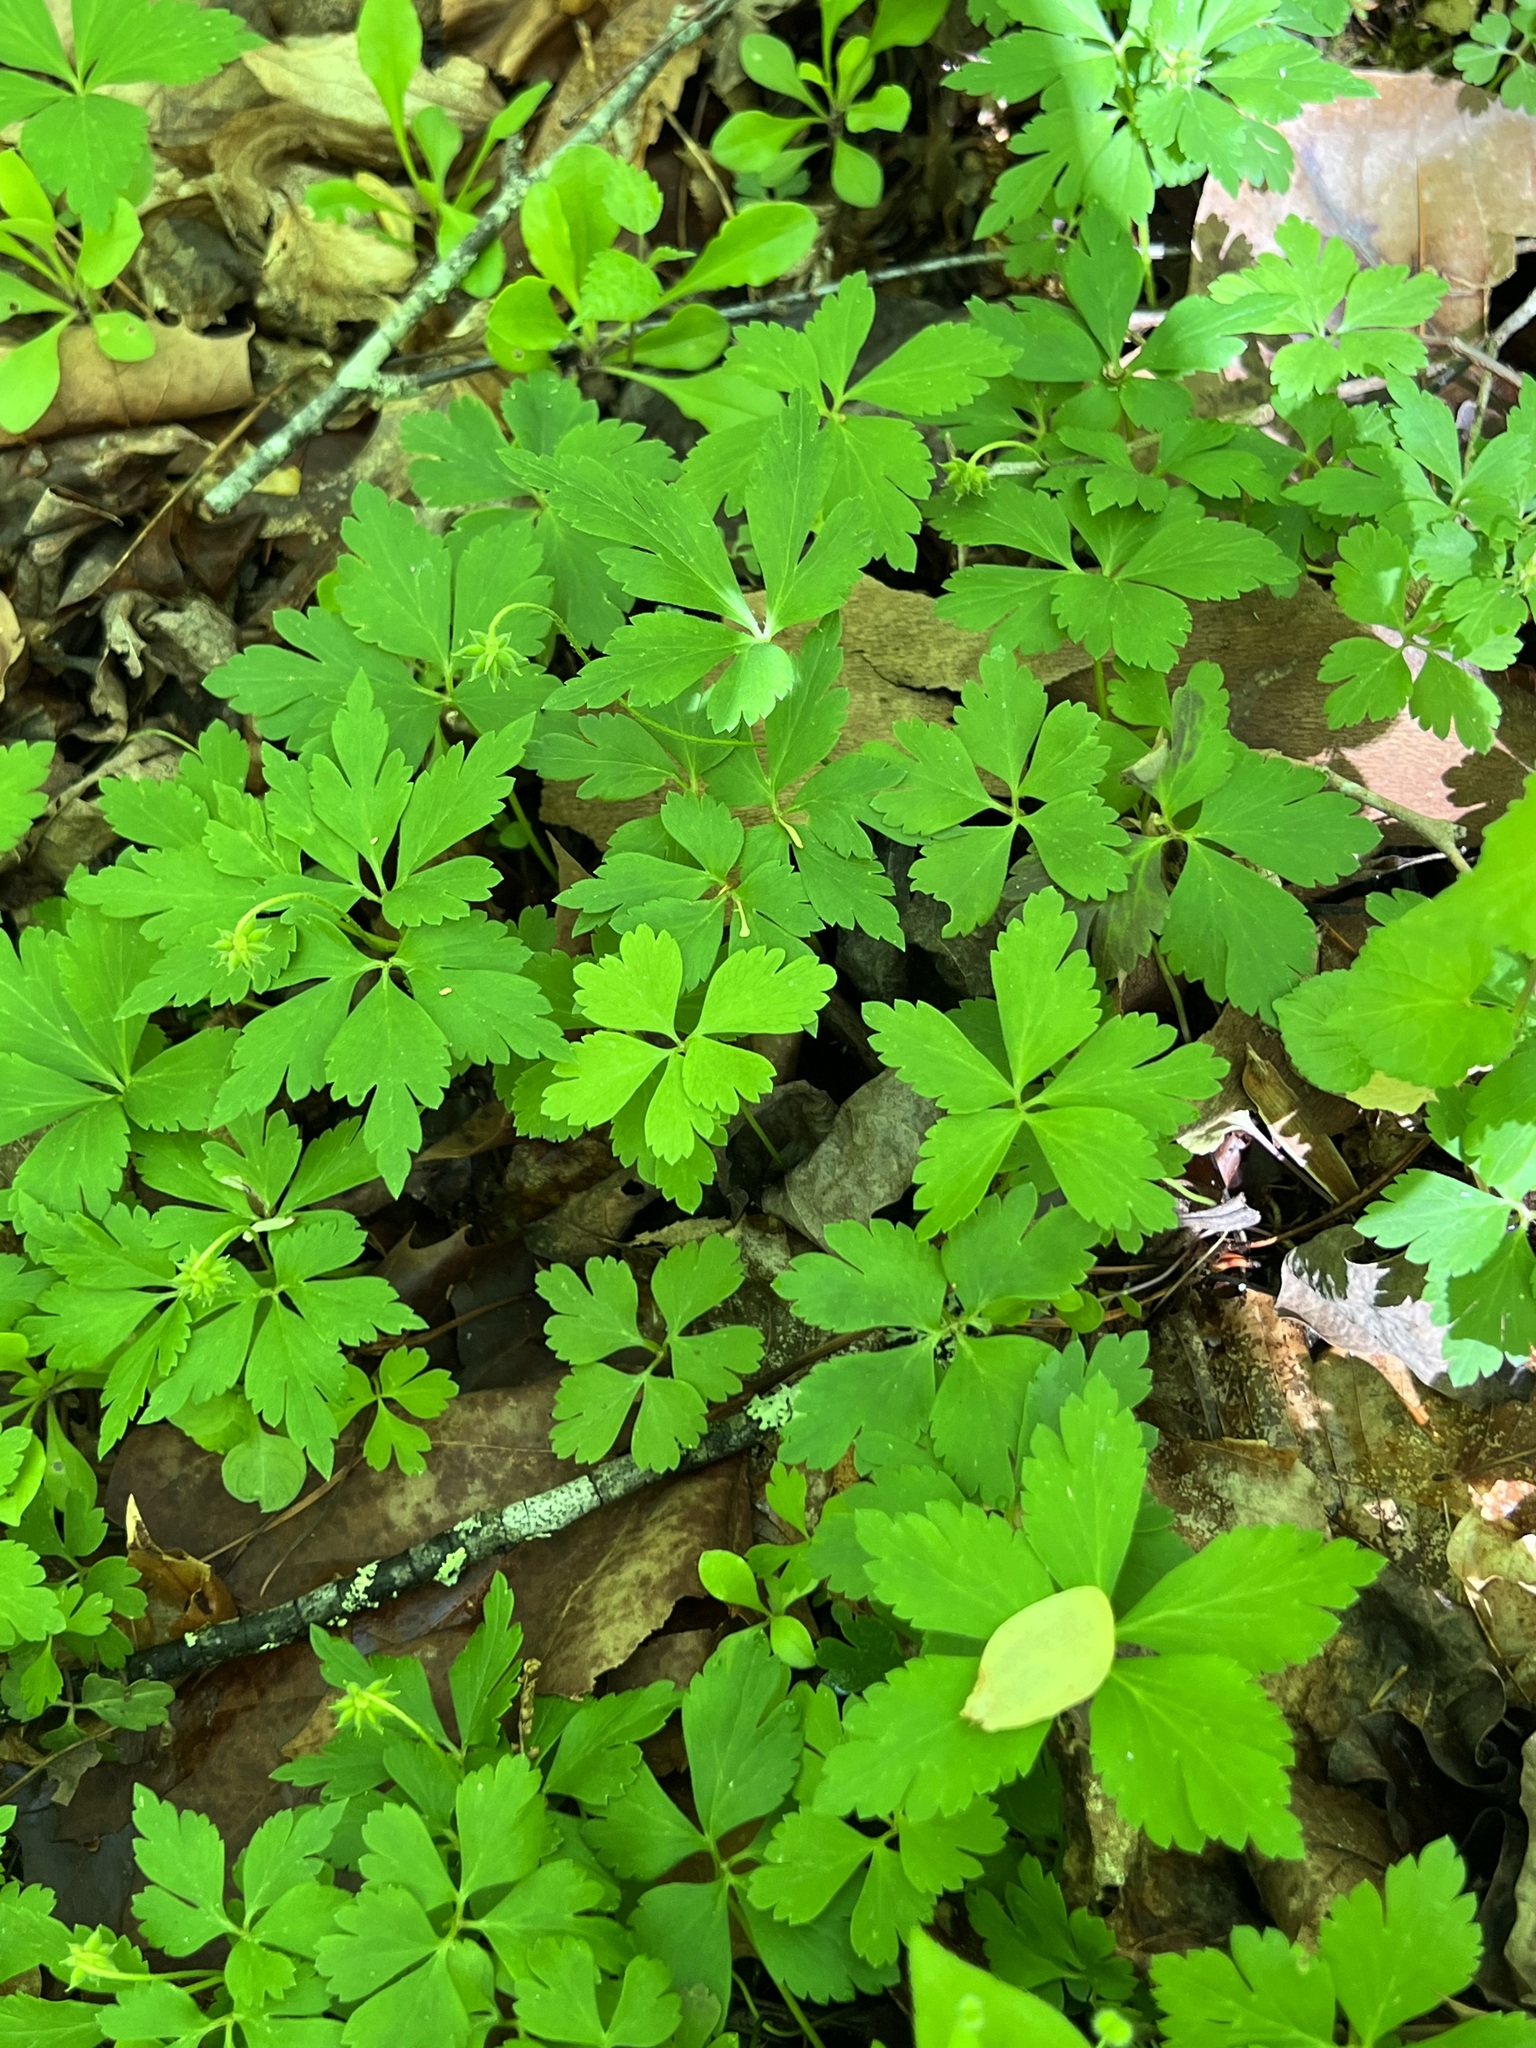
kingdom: Plantae
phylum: Tracheophyta
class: Magnoliopsida
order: Ranunculales
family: Ranunculaceae
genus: Anemone
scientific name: Anemone quinquefolia
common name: Wood anemone
